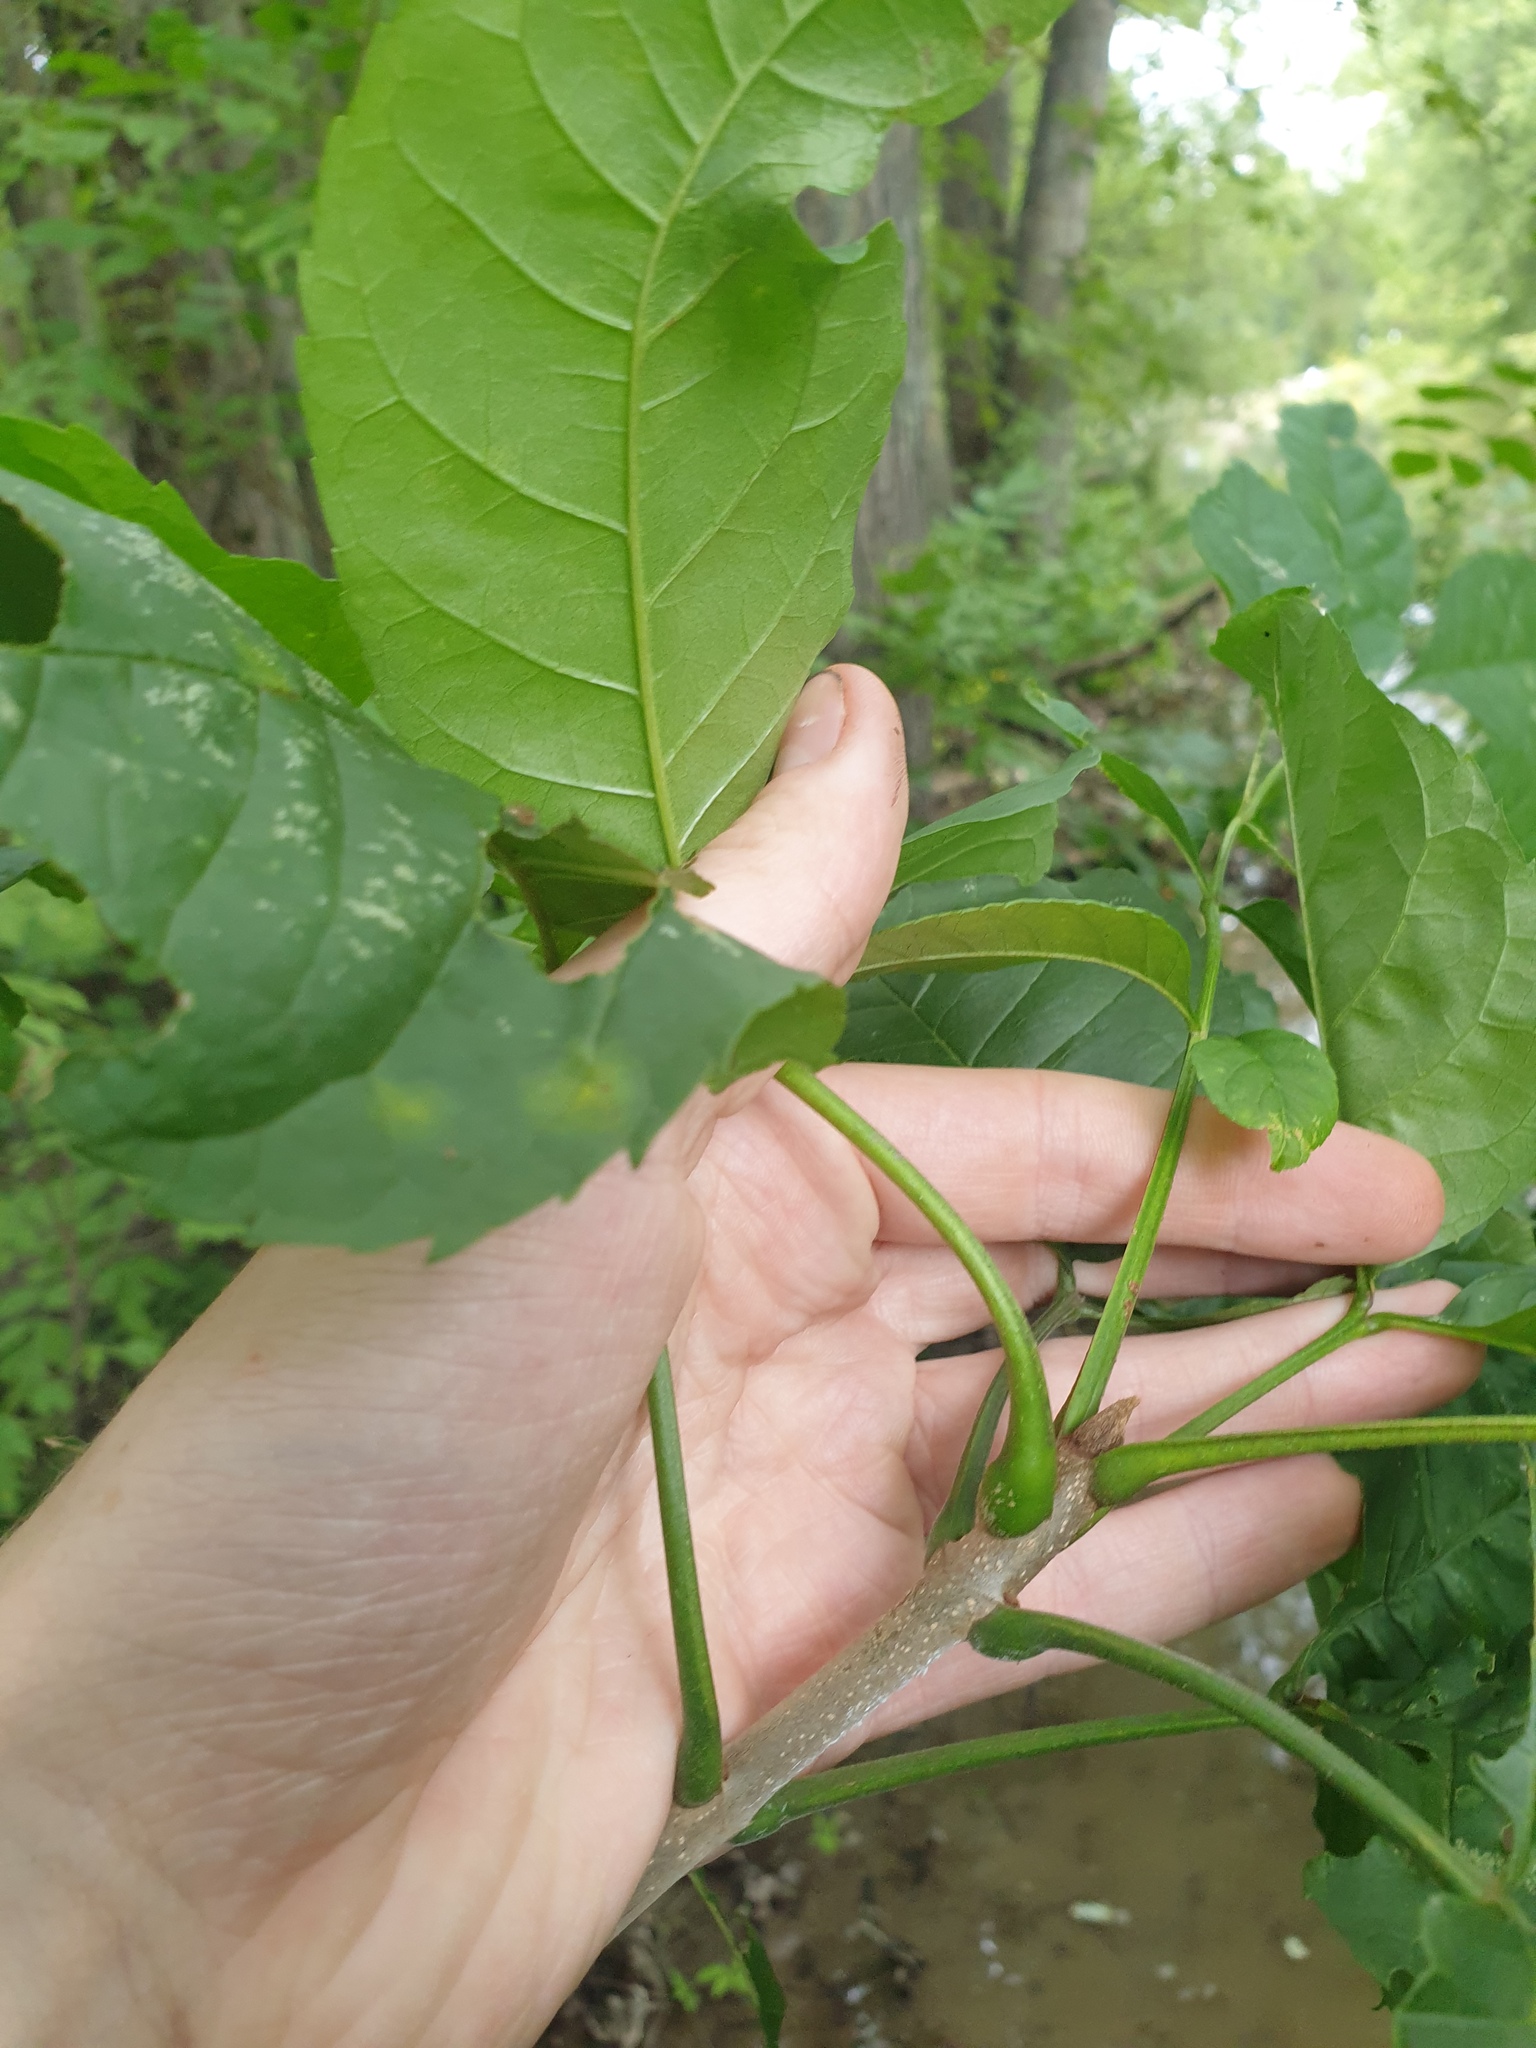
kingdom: Plantae
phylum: Tracheophyta
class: Magnoliopsida
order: Lamiales
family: Oleaceae
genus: Fraxinus
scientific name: Fraxinus pennsylvanica
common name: Green ash
